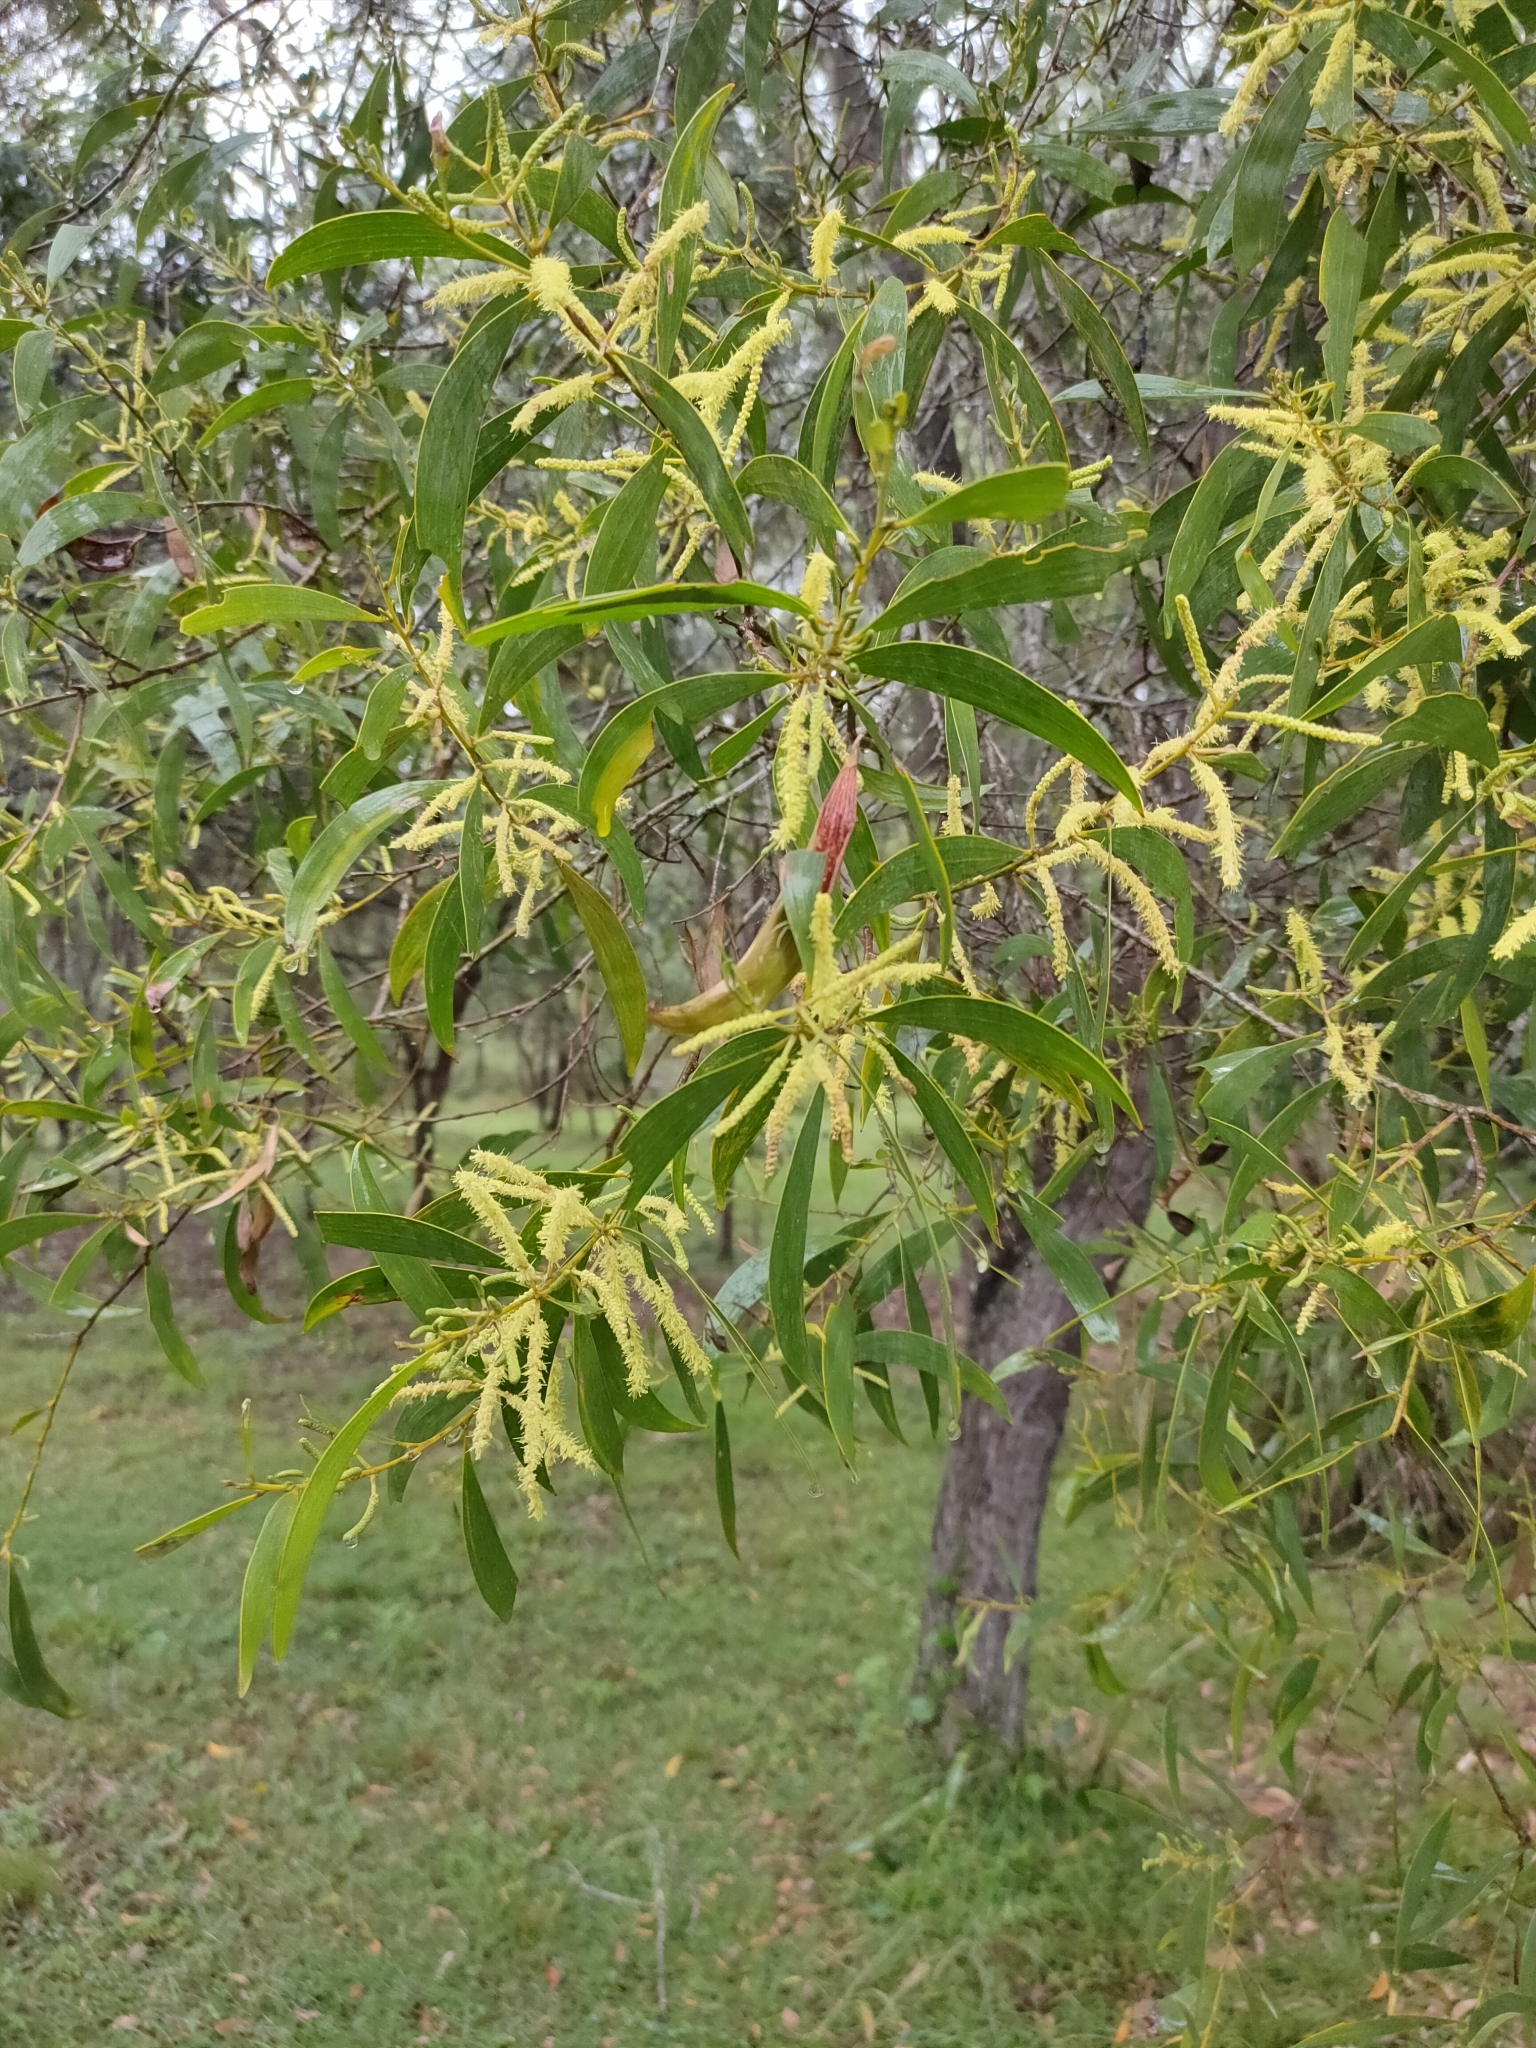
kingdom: Plantae
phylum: Tracheophyta
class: Magnoliopsida
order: Fabales
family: Fabaceae
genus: Acacia
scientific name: Acacia disparrima
